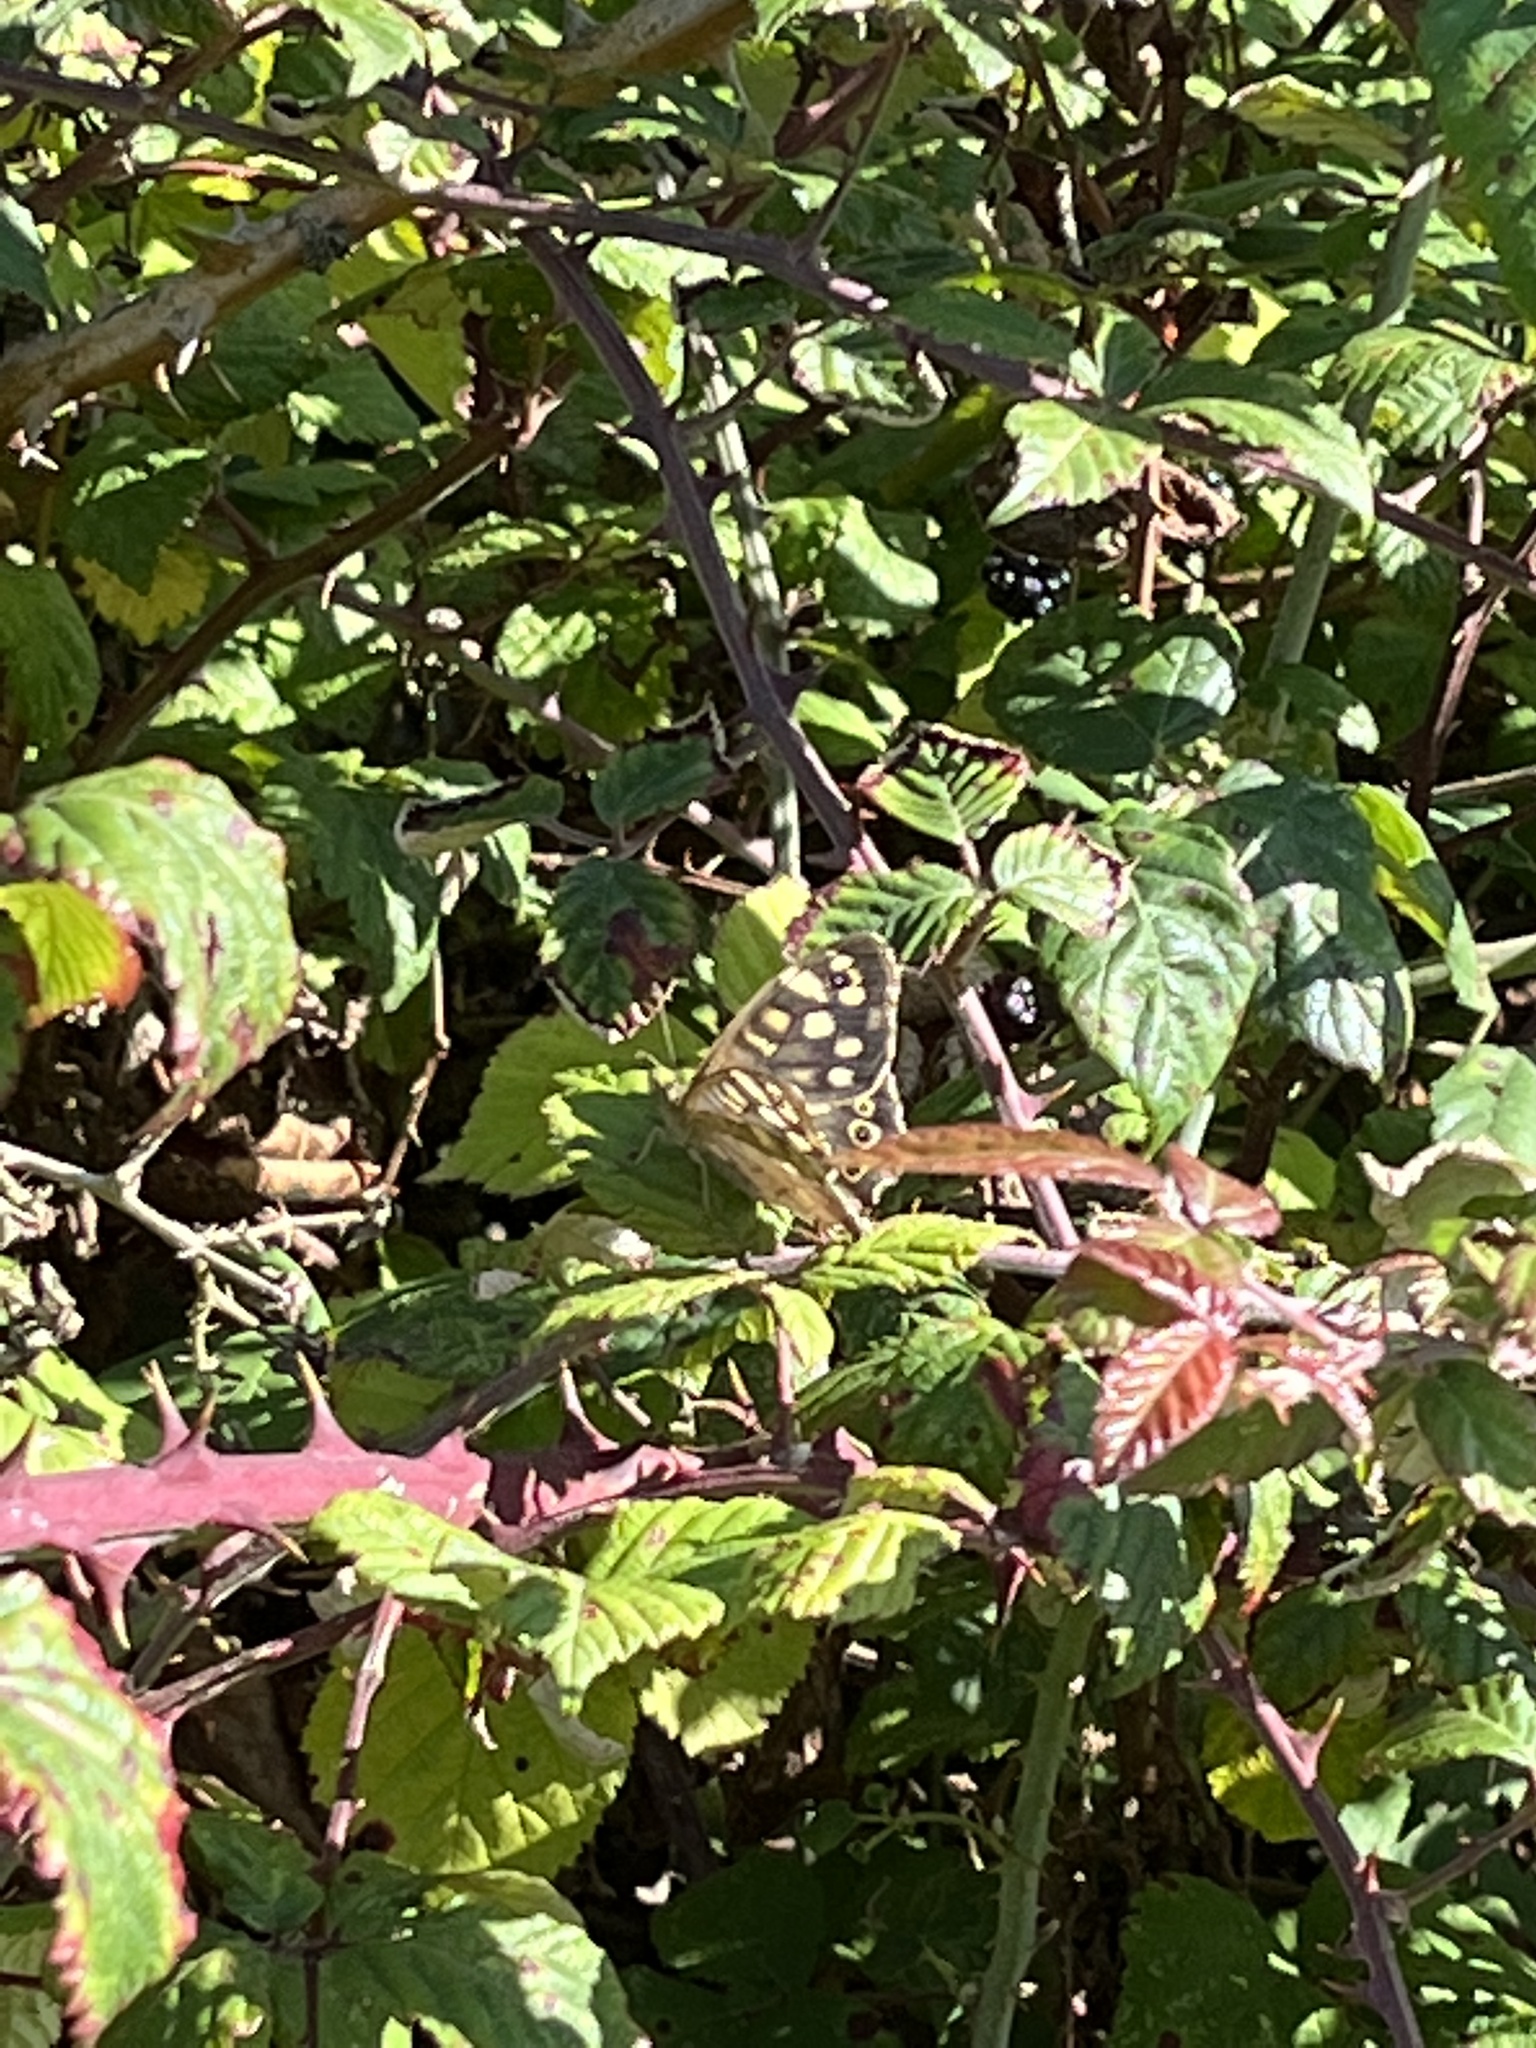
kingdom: Animalia
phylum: Arthropoda
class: Insecta
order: Lepidoptera
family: Nymphalidae
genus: Pararge
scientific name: Pararge aegeria
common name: Speckled wood
